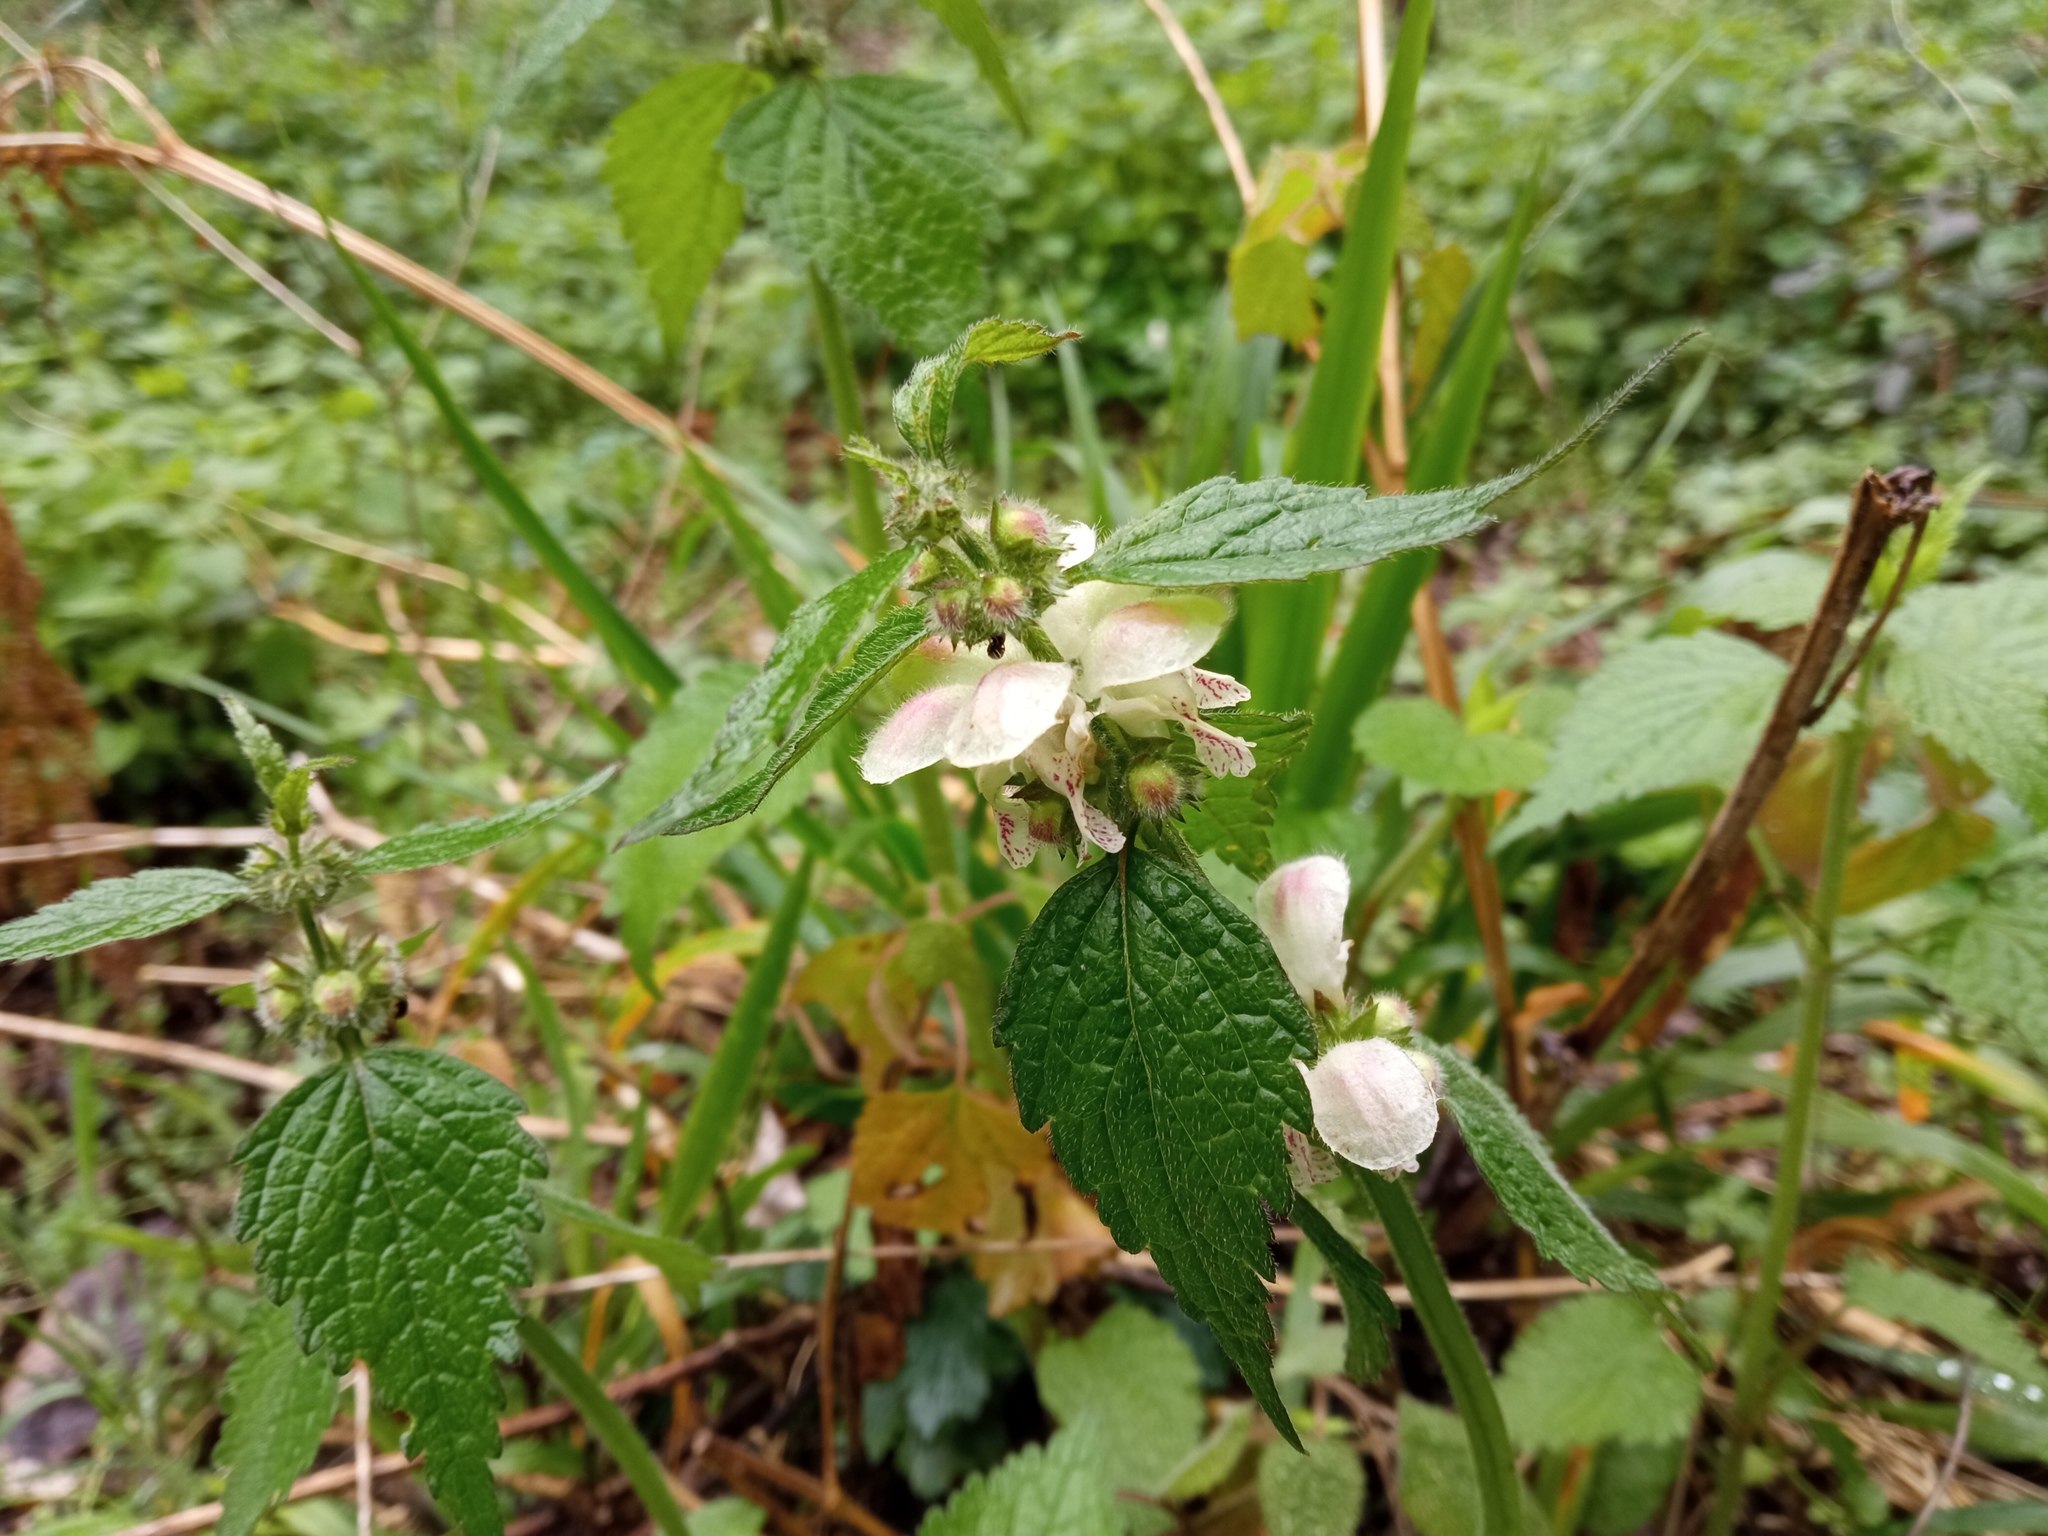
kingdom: Plantae
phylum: Tracheophyta
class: Magnoliopsida
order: Lamiales
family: Lamiaceae
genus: Lamium
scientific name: Lamium flexuosum
